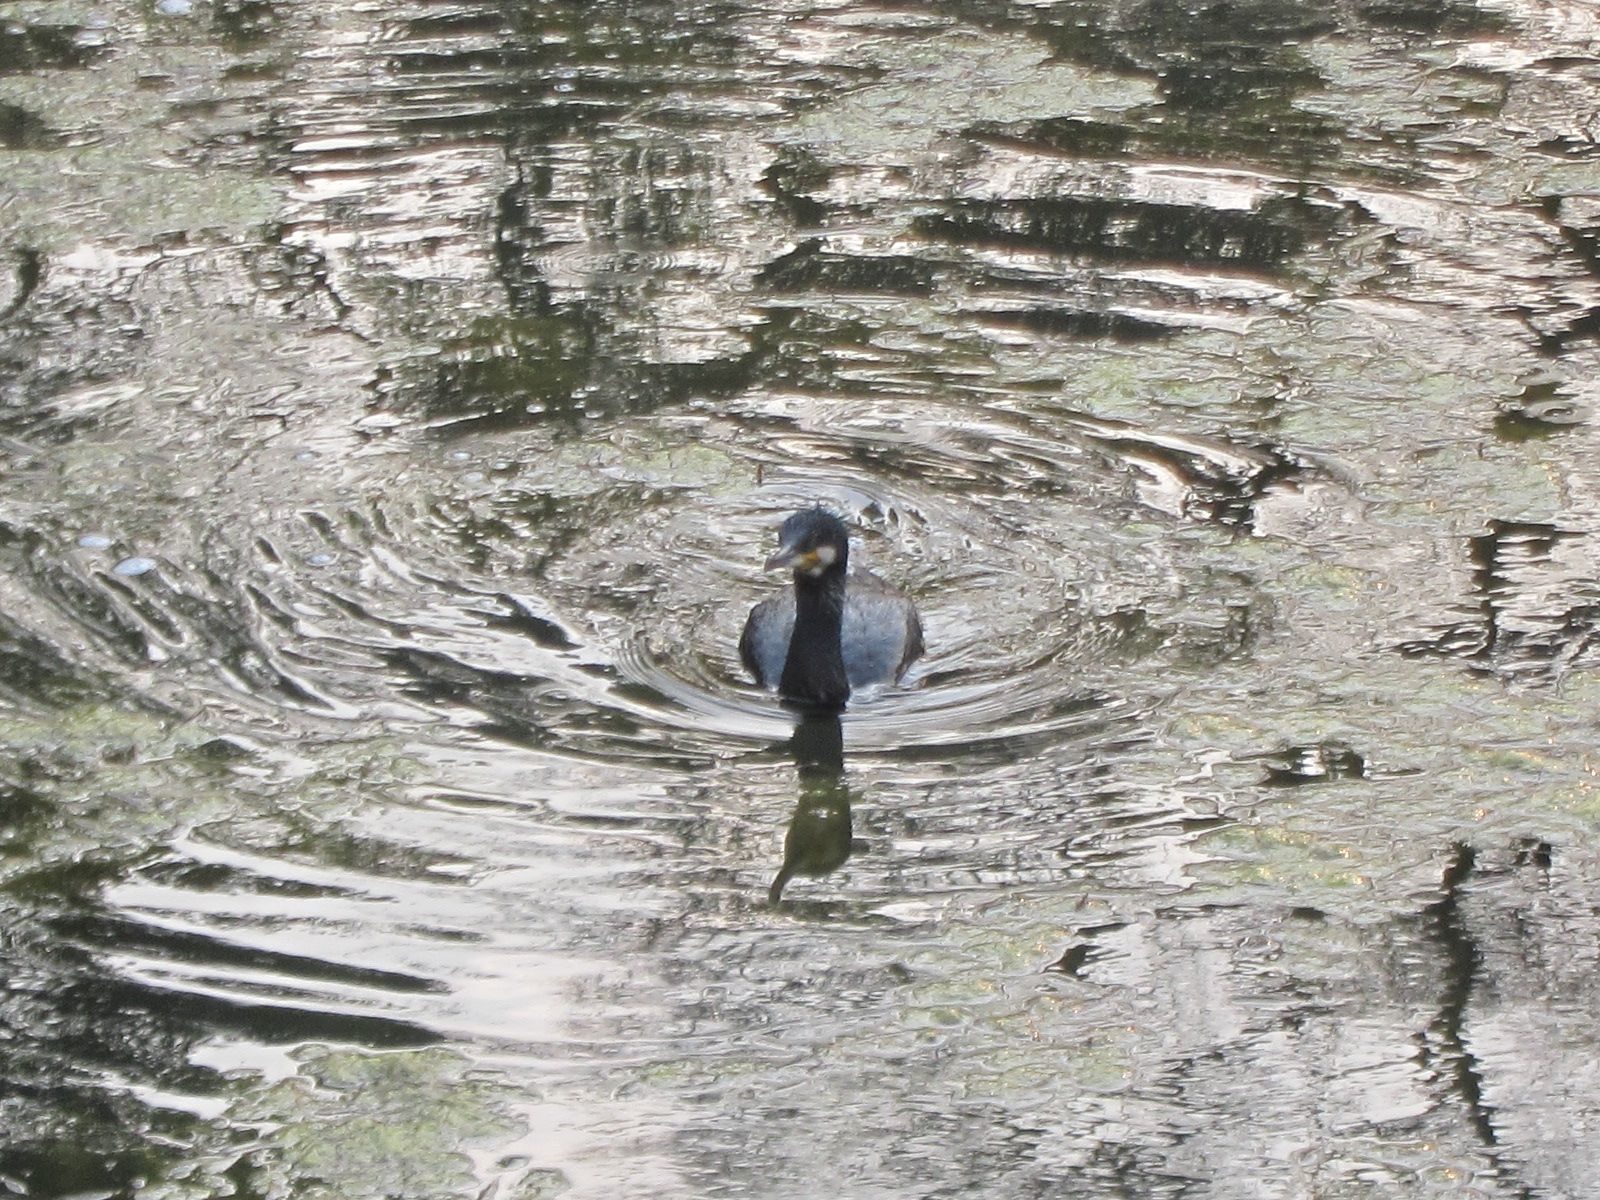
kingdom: Animalia
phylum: Chordata
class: Aves
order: Suliformes
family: Phalacrocoracidae
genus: Phalacrocorax
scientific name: Phalacrocorax carbo
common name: Great cormorant
